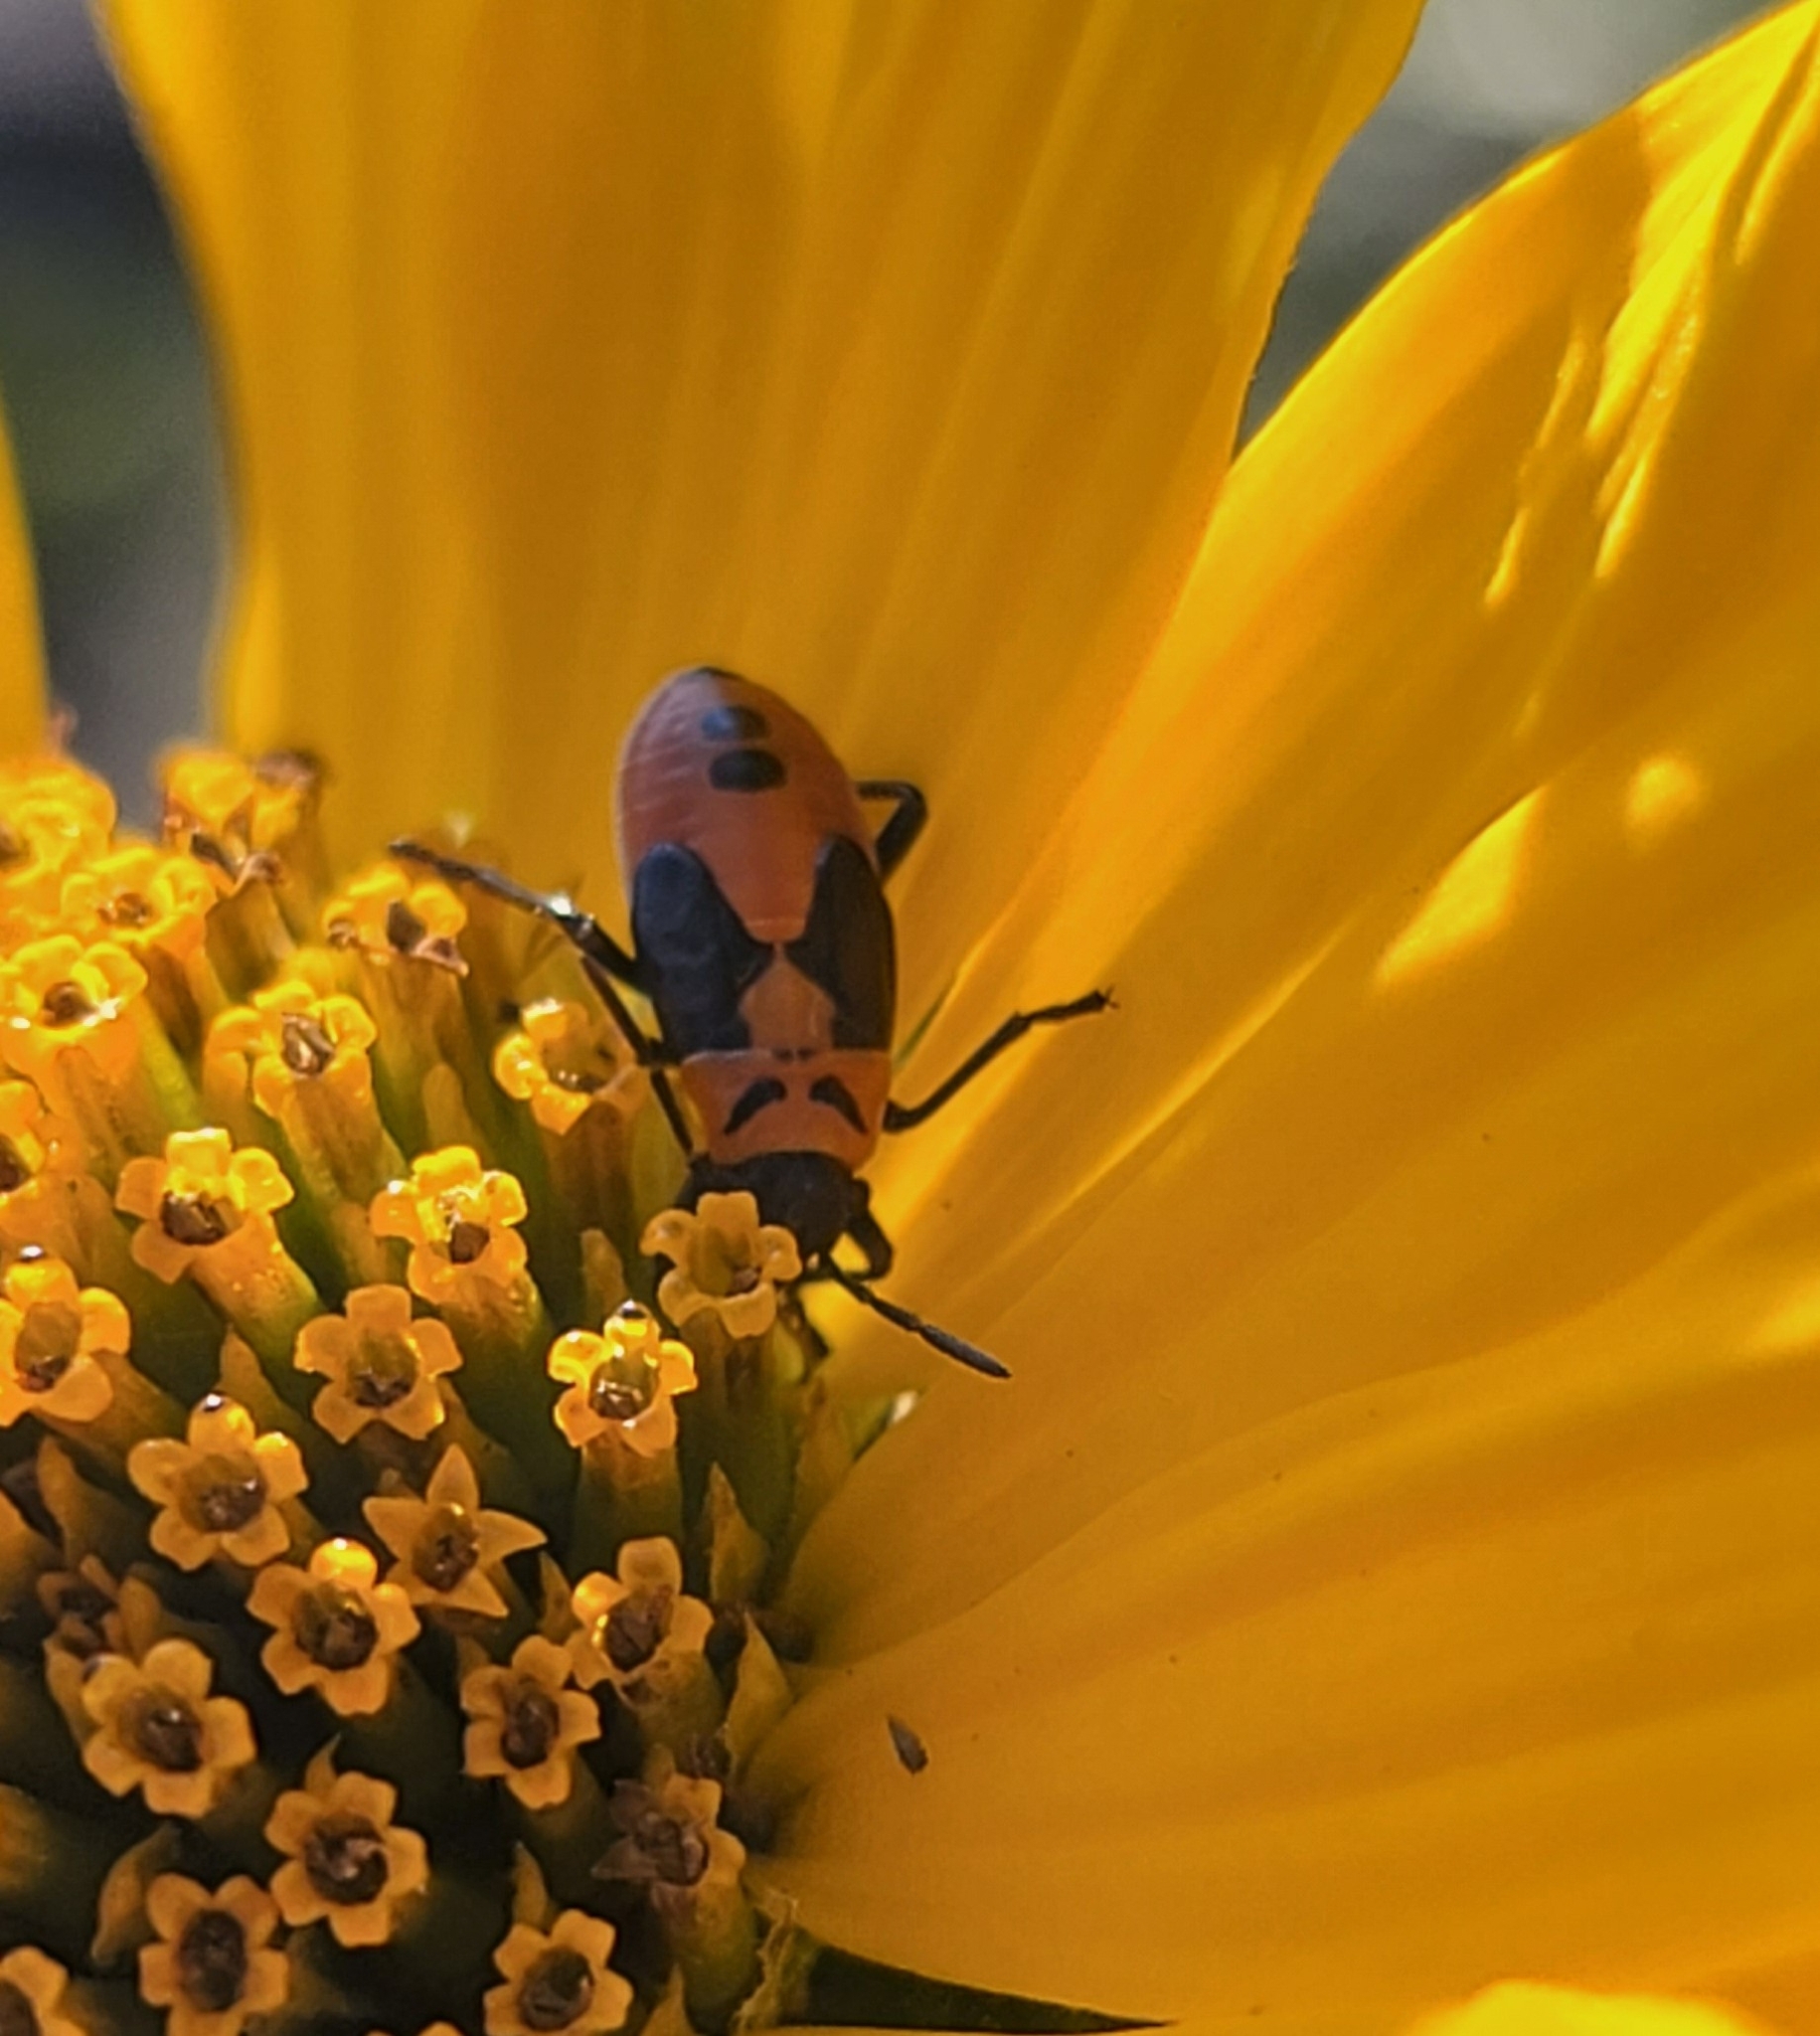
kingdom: Animalia
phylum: Arthropoda
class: Insecta
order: Hemiptera
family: Lygaeidae
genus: Lygaeus
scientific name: Lygaeus turcicus
